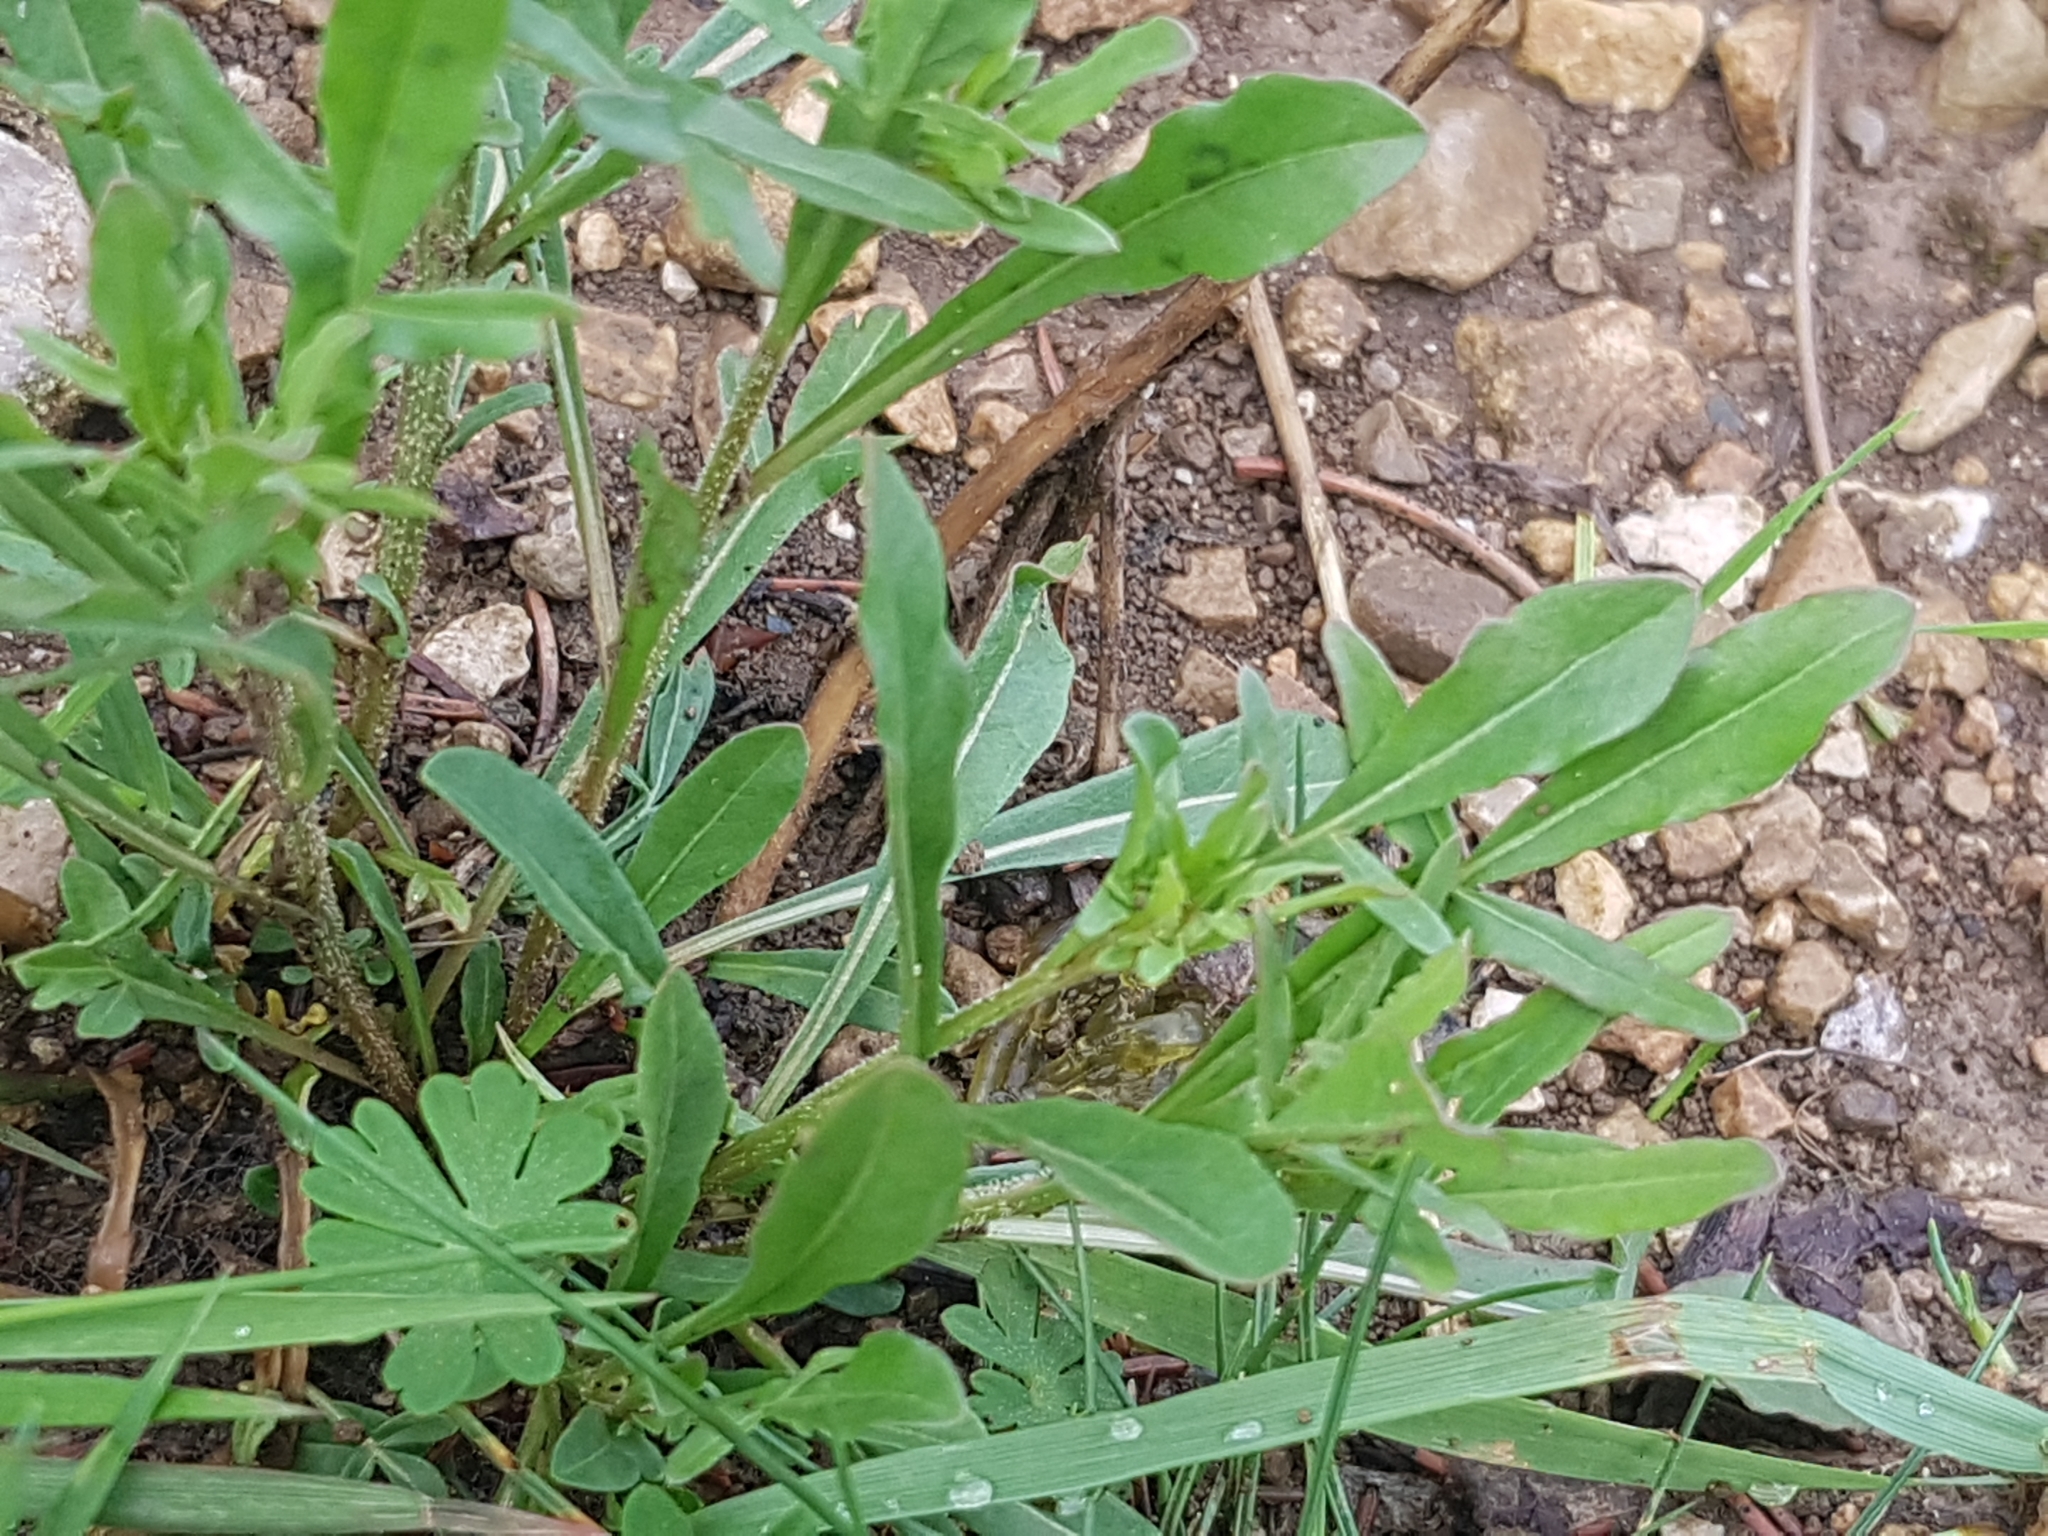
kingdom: Plantae
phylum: Tracheophyta
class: Magnoliopsida
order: Brassicales
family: Resedaceae
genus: Reseda
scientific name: Reseda lutea
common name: Wild mignonette
